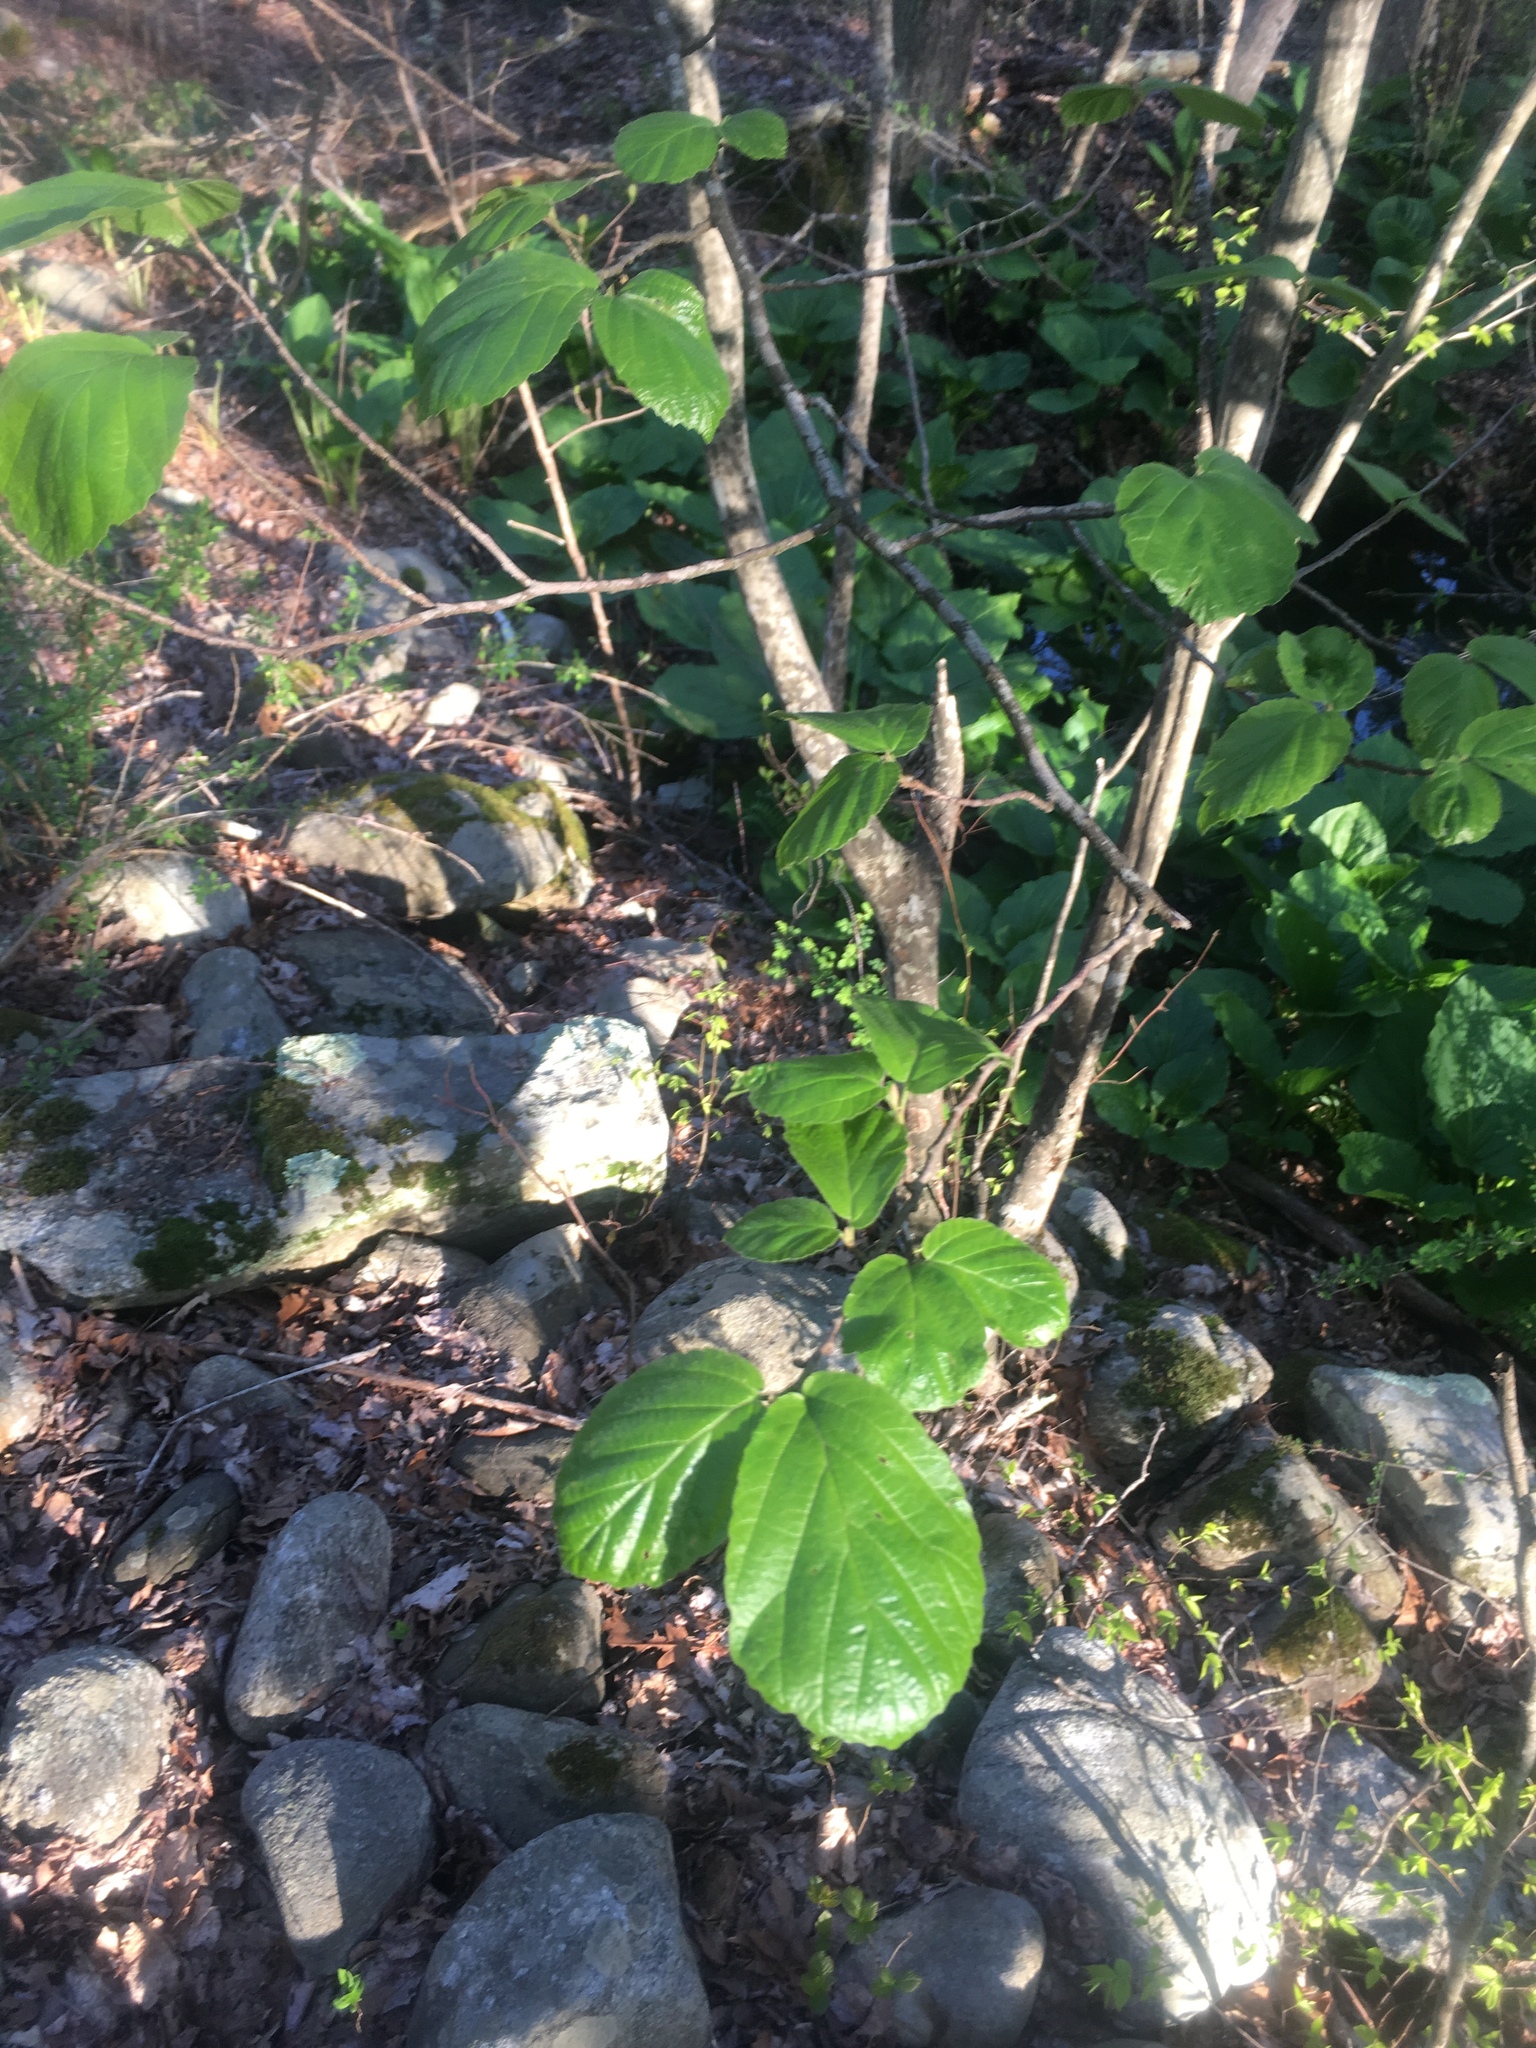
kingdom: Plantae
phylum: Tracheophyta
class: Magnoliopsida
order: Saxifragales
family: Hamamelidaceae
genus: Hamamelis
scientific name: Hamamelis virginiana
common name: Witch-hazel
